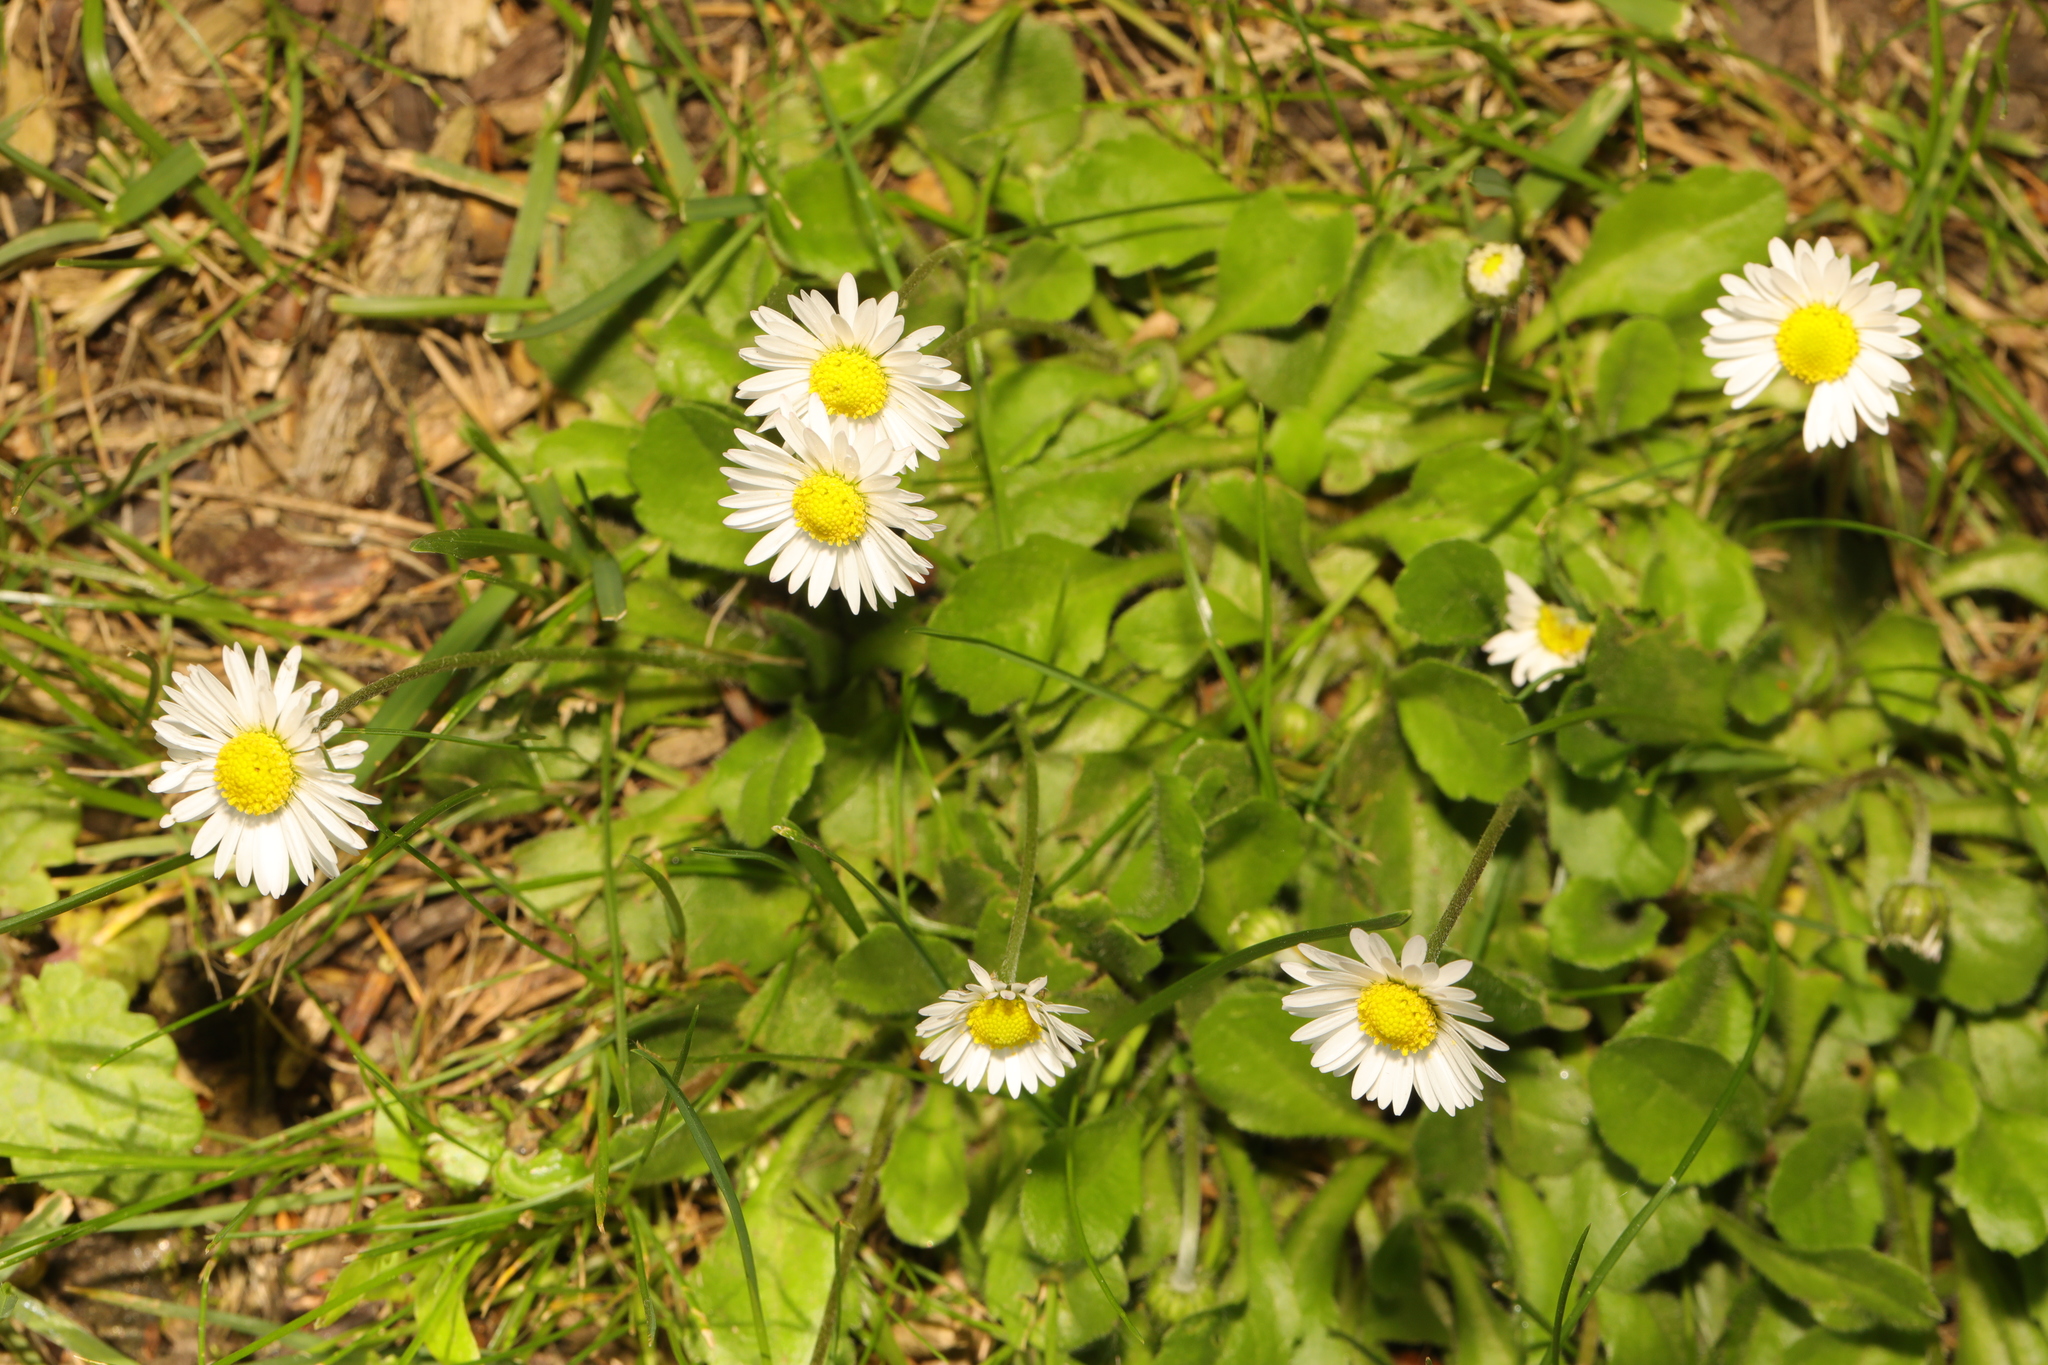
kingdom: Plantae
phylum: Tracheophyta
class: Magnoliopsida
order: Asterales
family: Asteraceae
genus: Bellis
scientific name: Bellis perennis
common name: Lawndaisy
